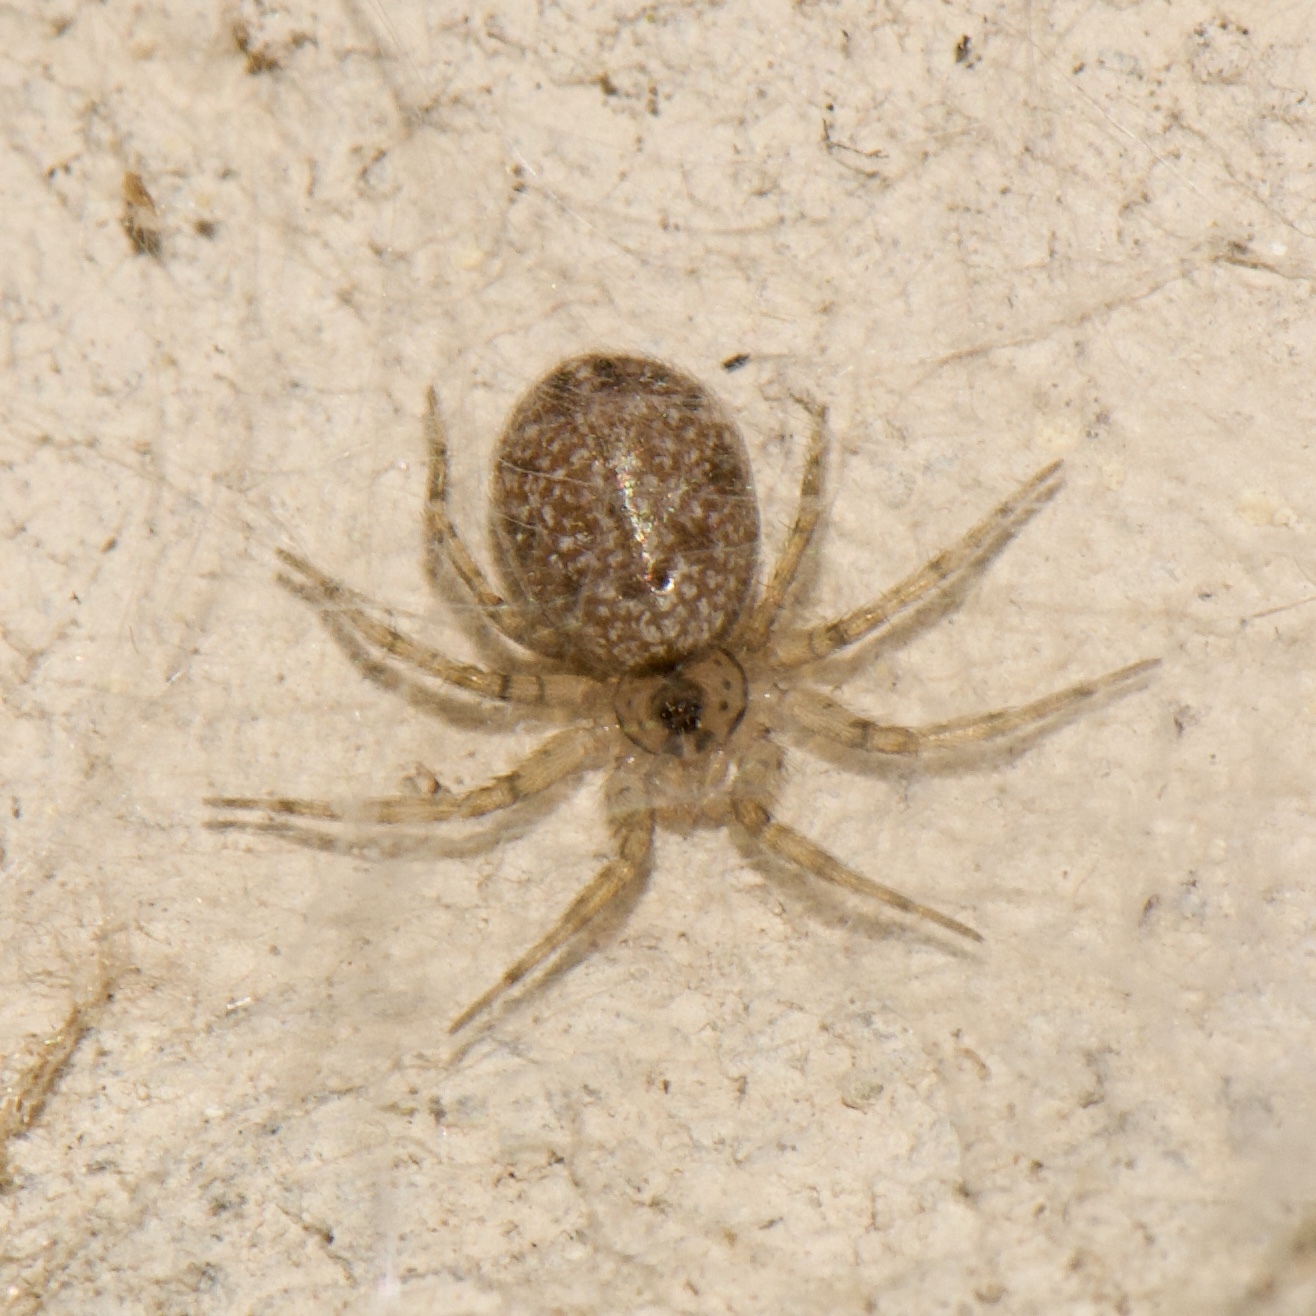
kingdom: Animalia
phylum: Arthropoda
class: Arachnida
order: Araneae
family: Oecobiidae
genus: Oecobius
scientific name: Oecobius navus
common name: Flatmesh weaver
